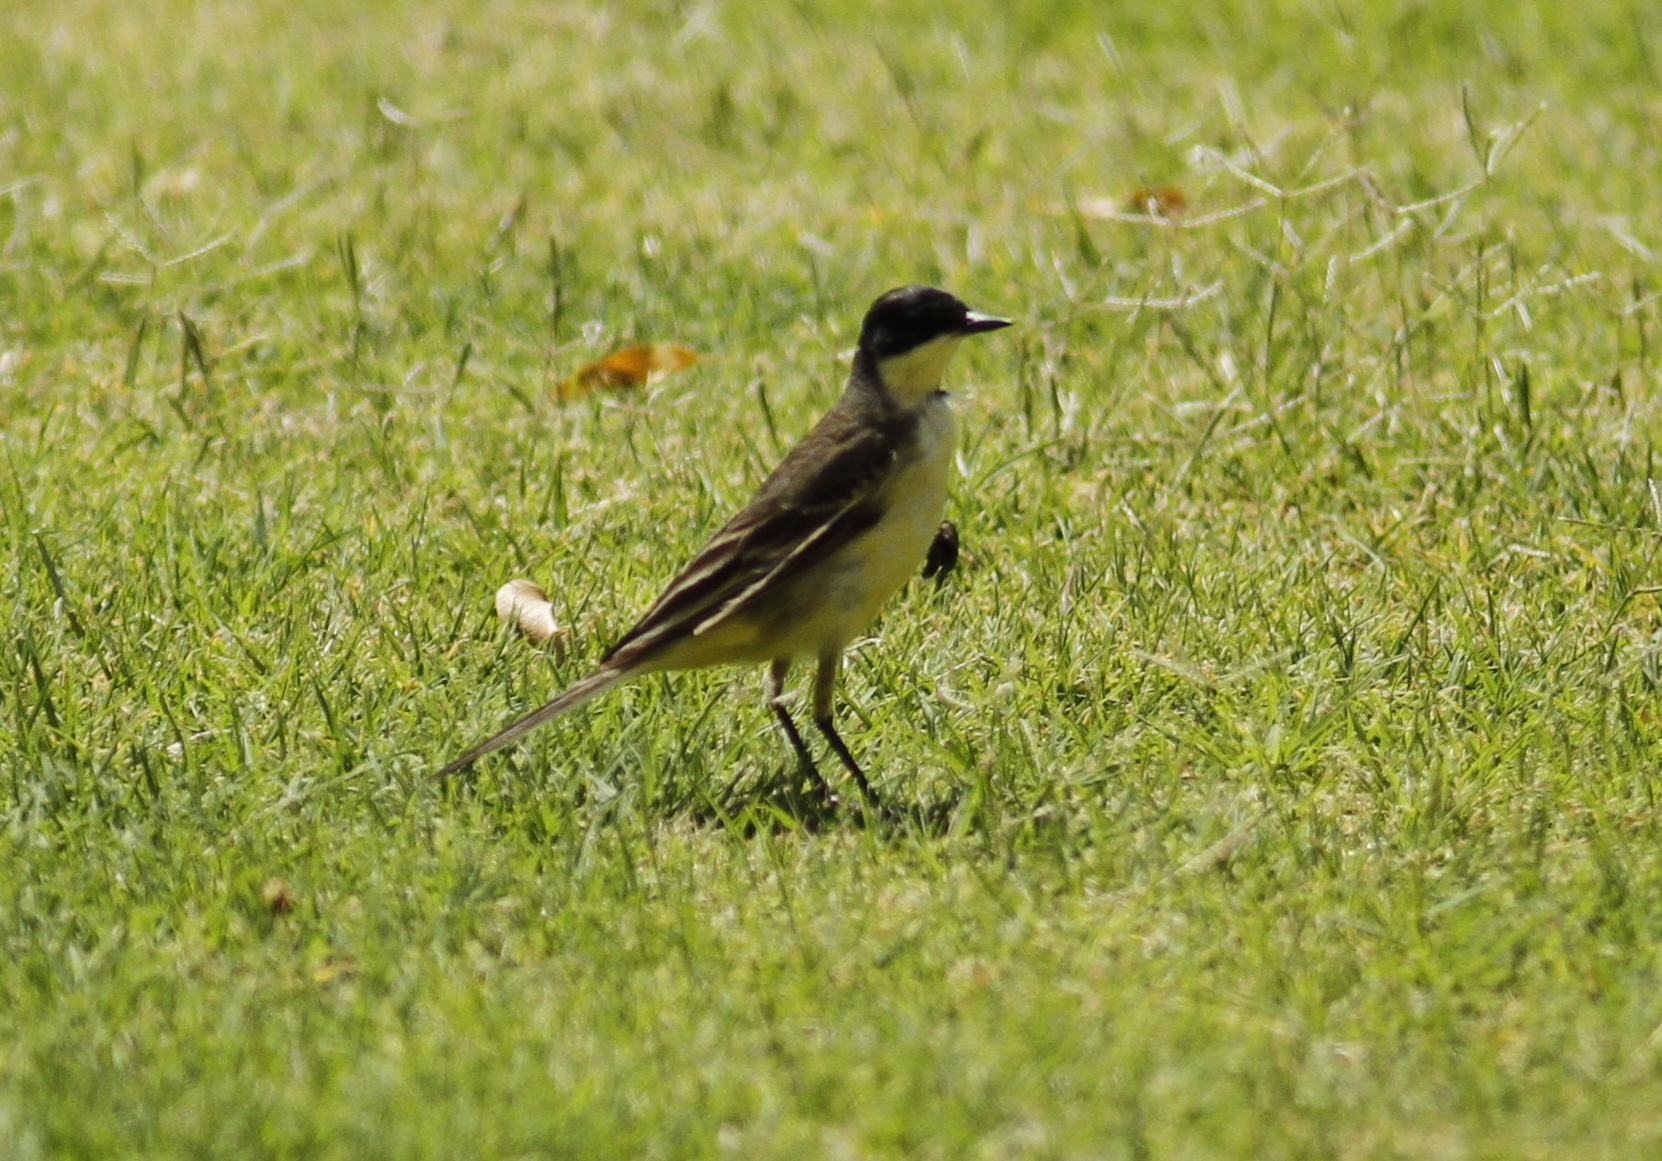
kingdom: Animalia
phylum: Chordata
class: Aves
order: Passeriformes
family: Motacillidae
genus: Motacilla
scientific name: Motacilla flava
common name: Western yellow wagtail
